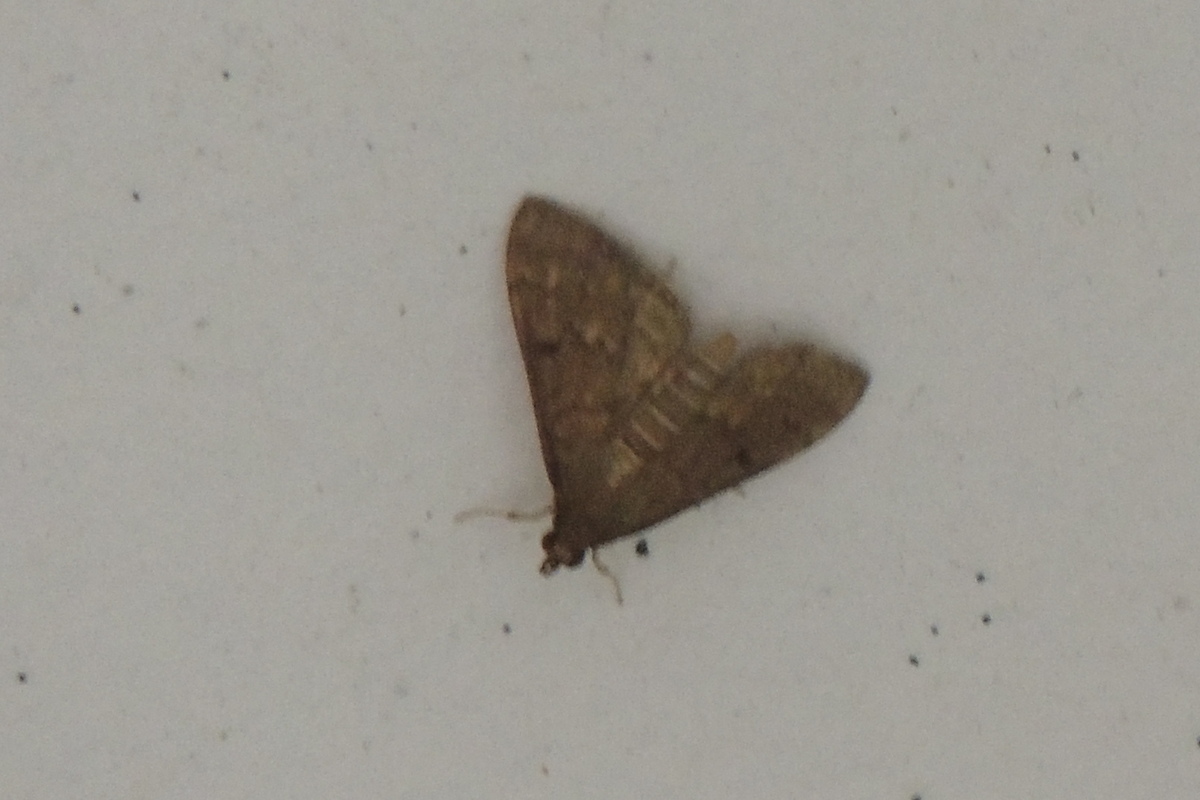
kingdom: Animalia
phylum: Arthropoda
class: Insecta
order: Lepidoptera
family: Crambidae
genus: Herpetogramma
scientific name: Herpetogramma phaeopteralis
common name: Dusky herpetogramma moth
